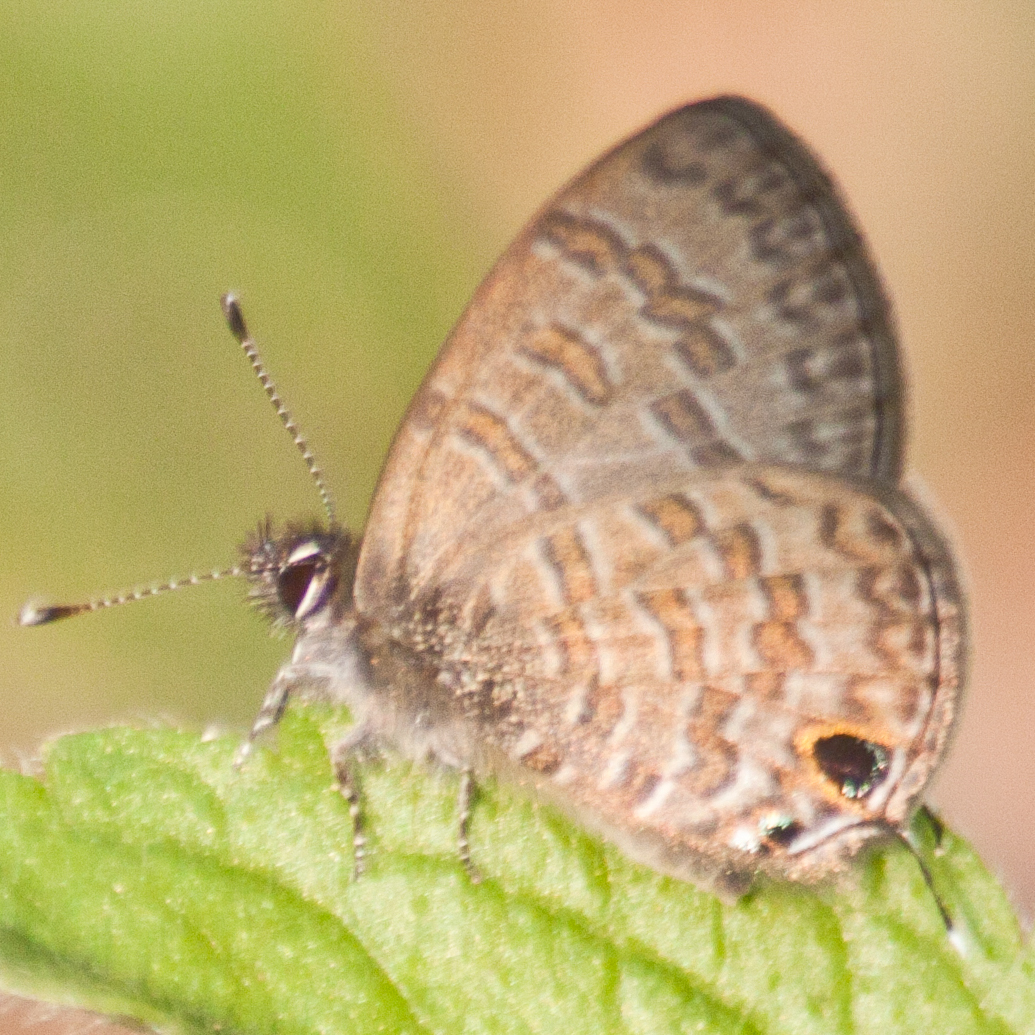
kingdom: Animalia
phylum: Arthropoda
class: Insecta
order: Lepidoptera
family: Lycaenidae
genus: Prosotas
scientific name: Prosotas nora
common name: Common line blue
